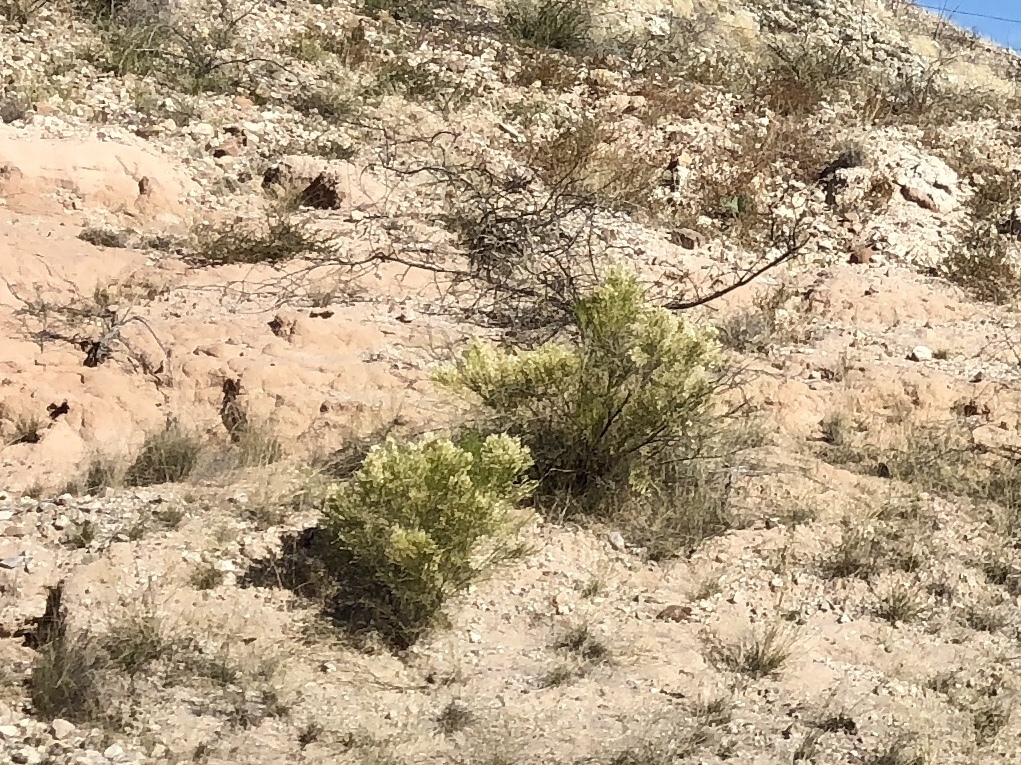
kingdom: Plantae
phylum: Tracheophyta
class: Magnoliopsida
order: Asterales
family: Asteraceae
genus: Baccharis
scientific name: Baccharis sarothroides
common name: Desert-broom
